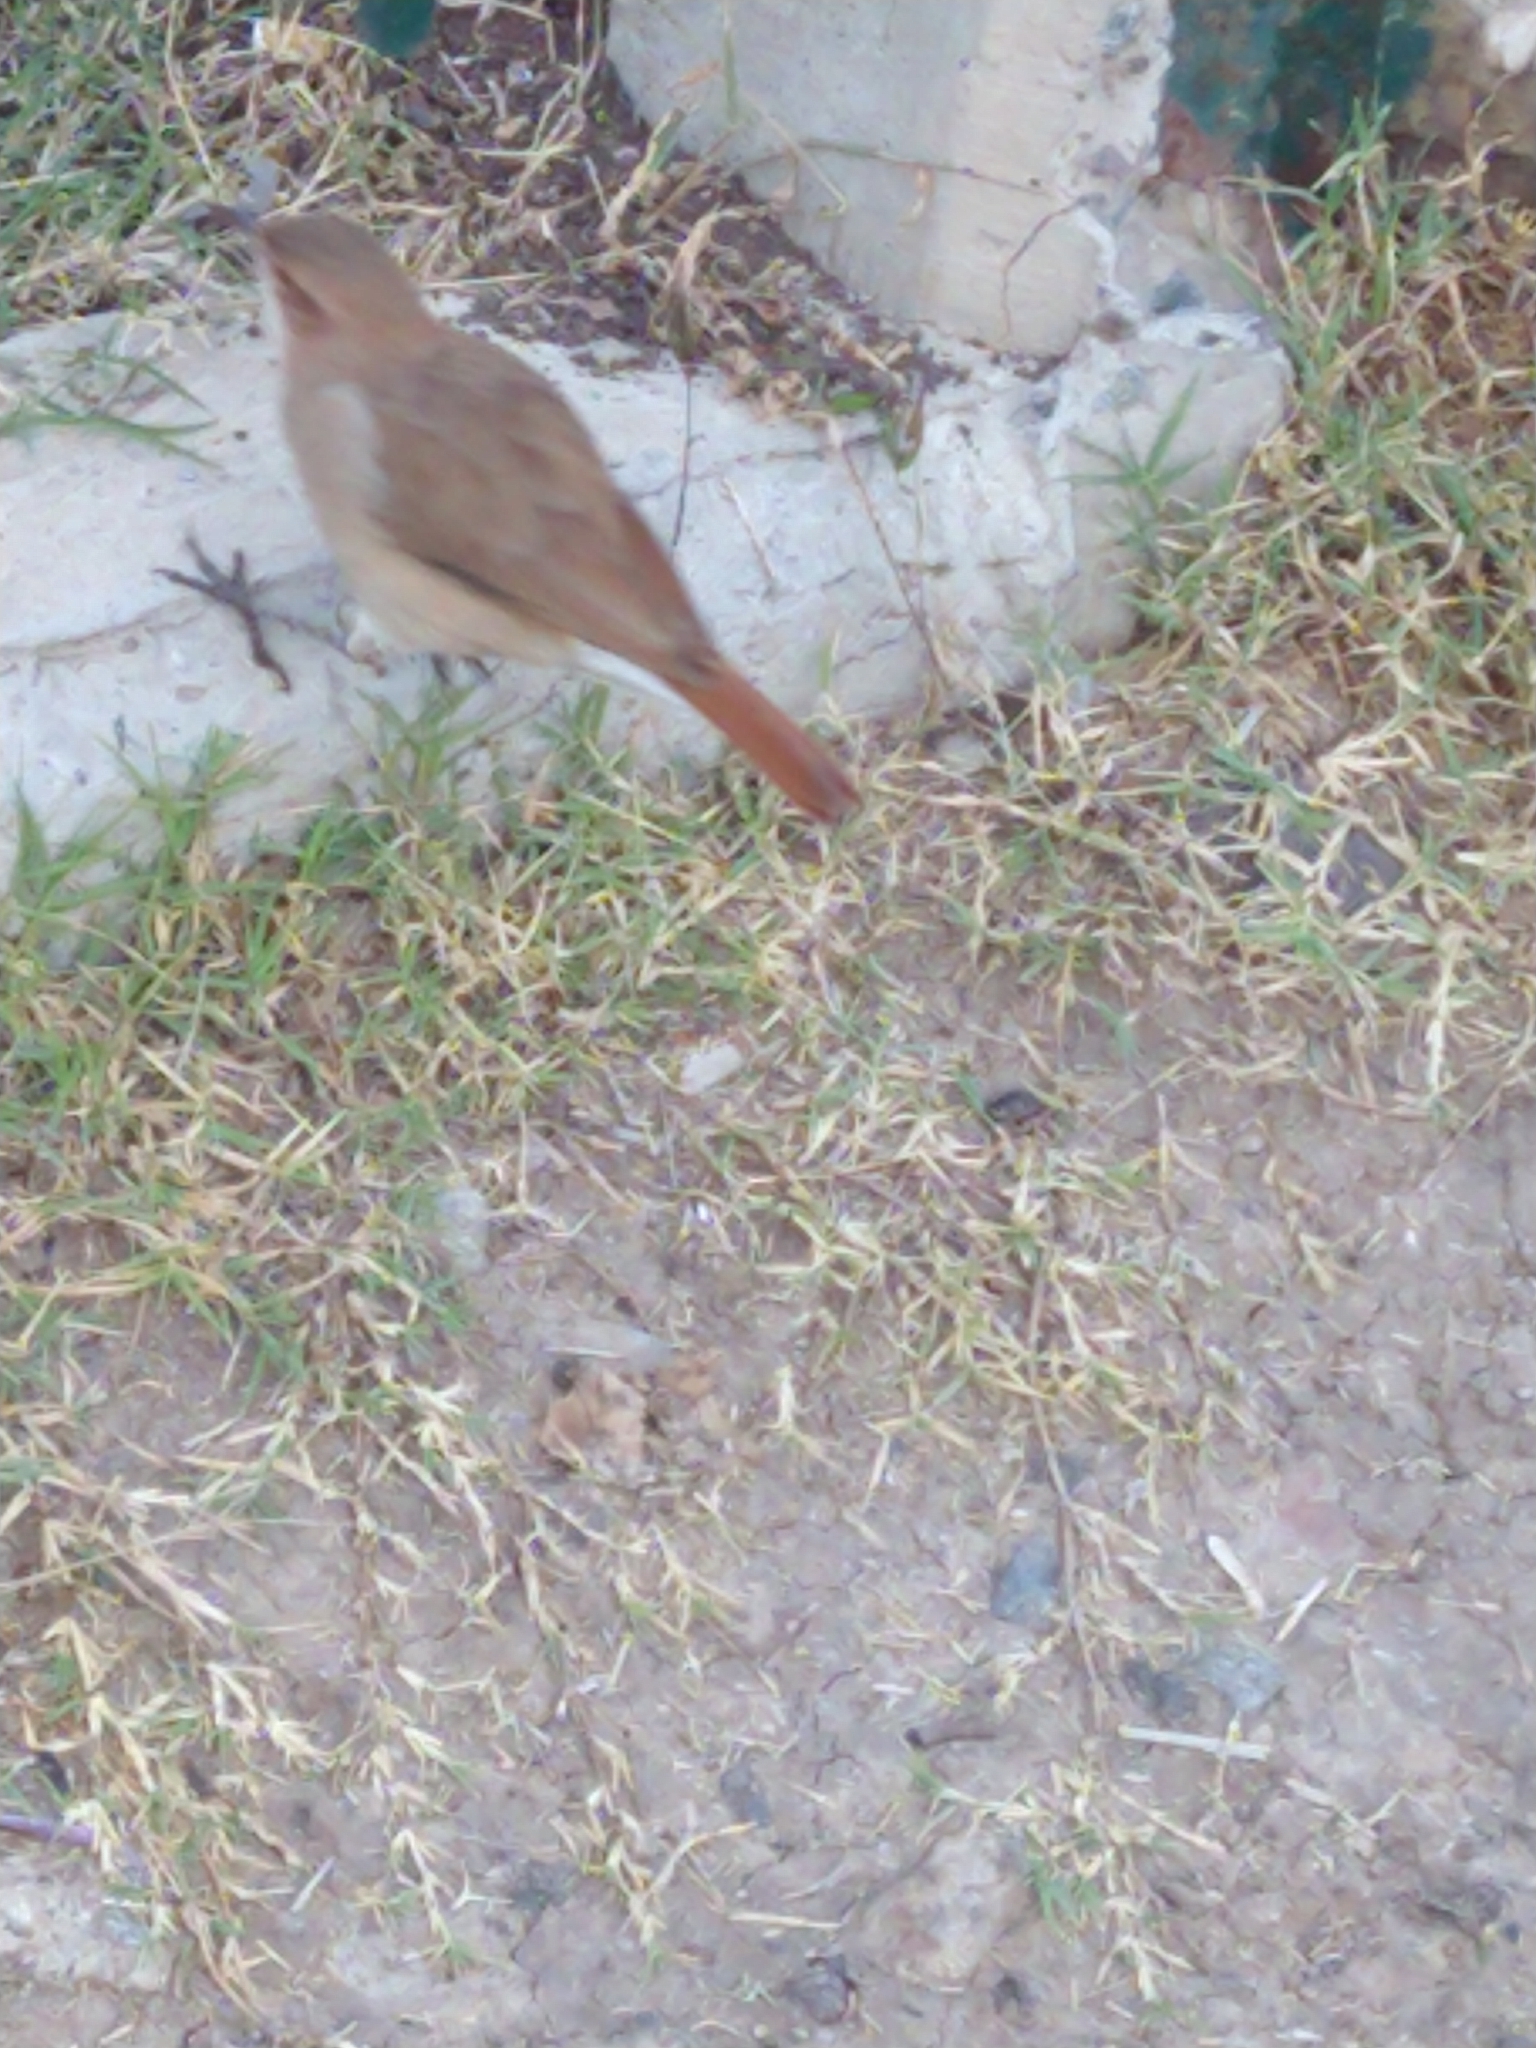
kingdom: Animalia
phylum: Chordata
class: Aves
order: Passeriformes
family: Furnariidae
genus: Furnarius
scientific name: Furnarius rufus
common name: Rufous hornero
